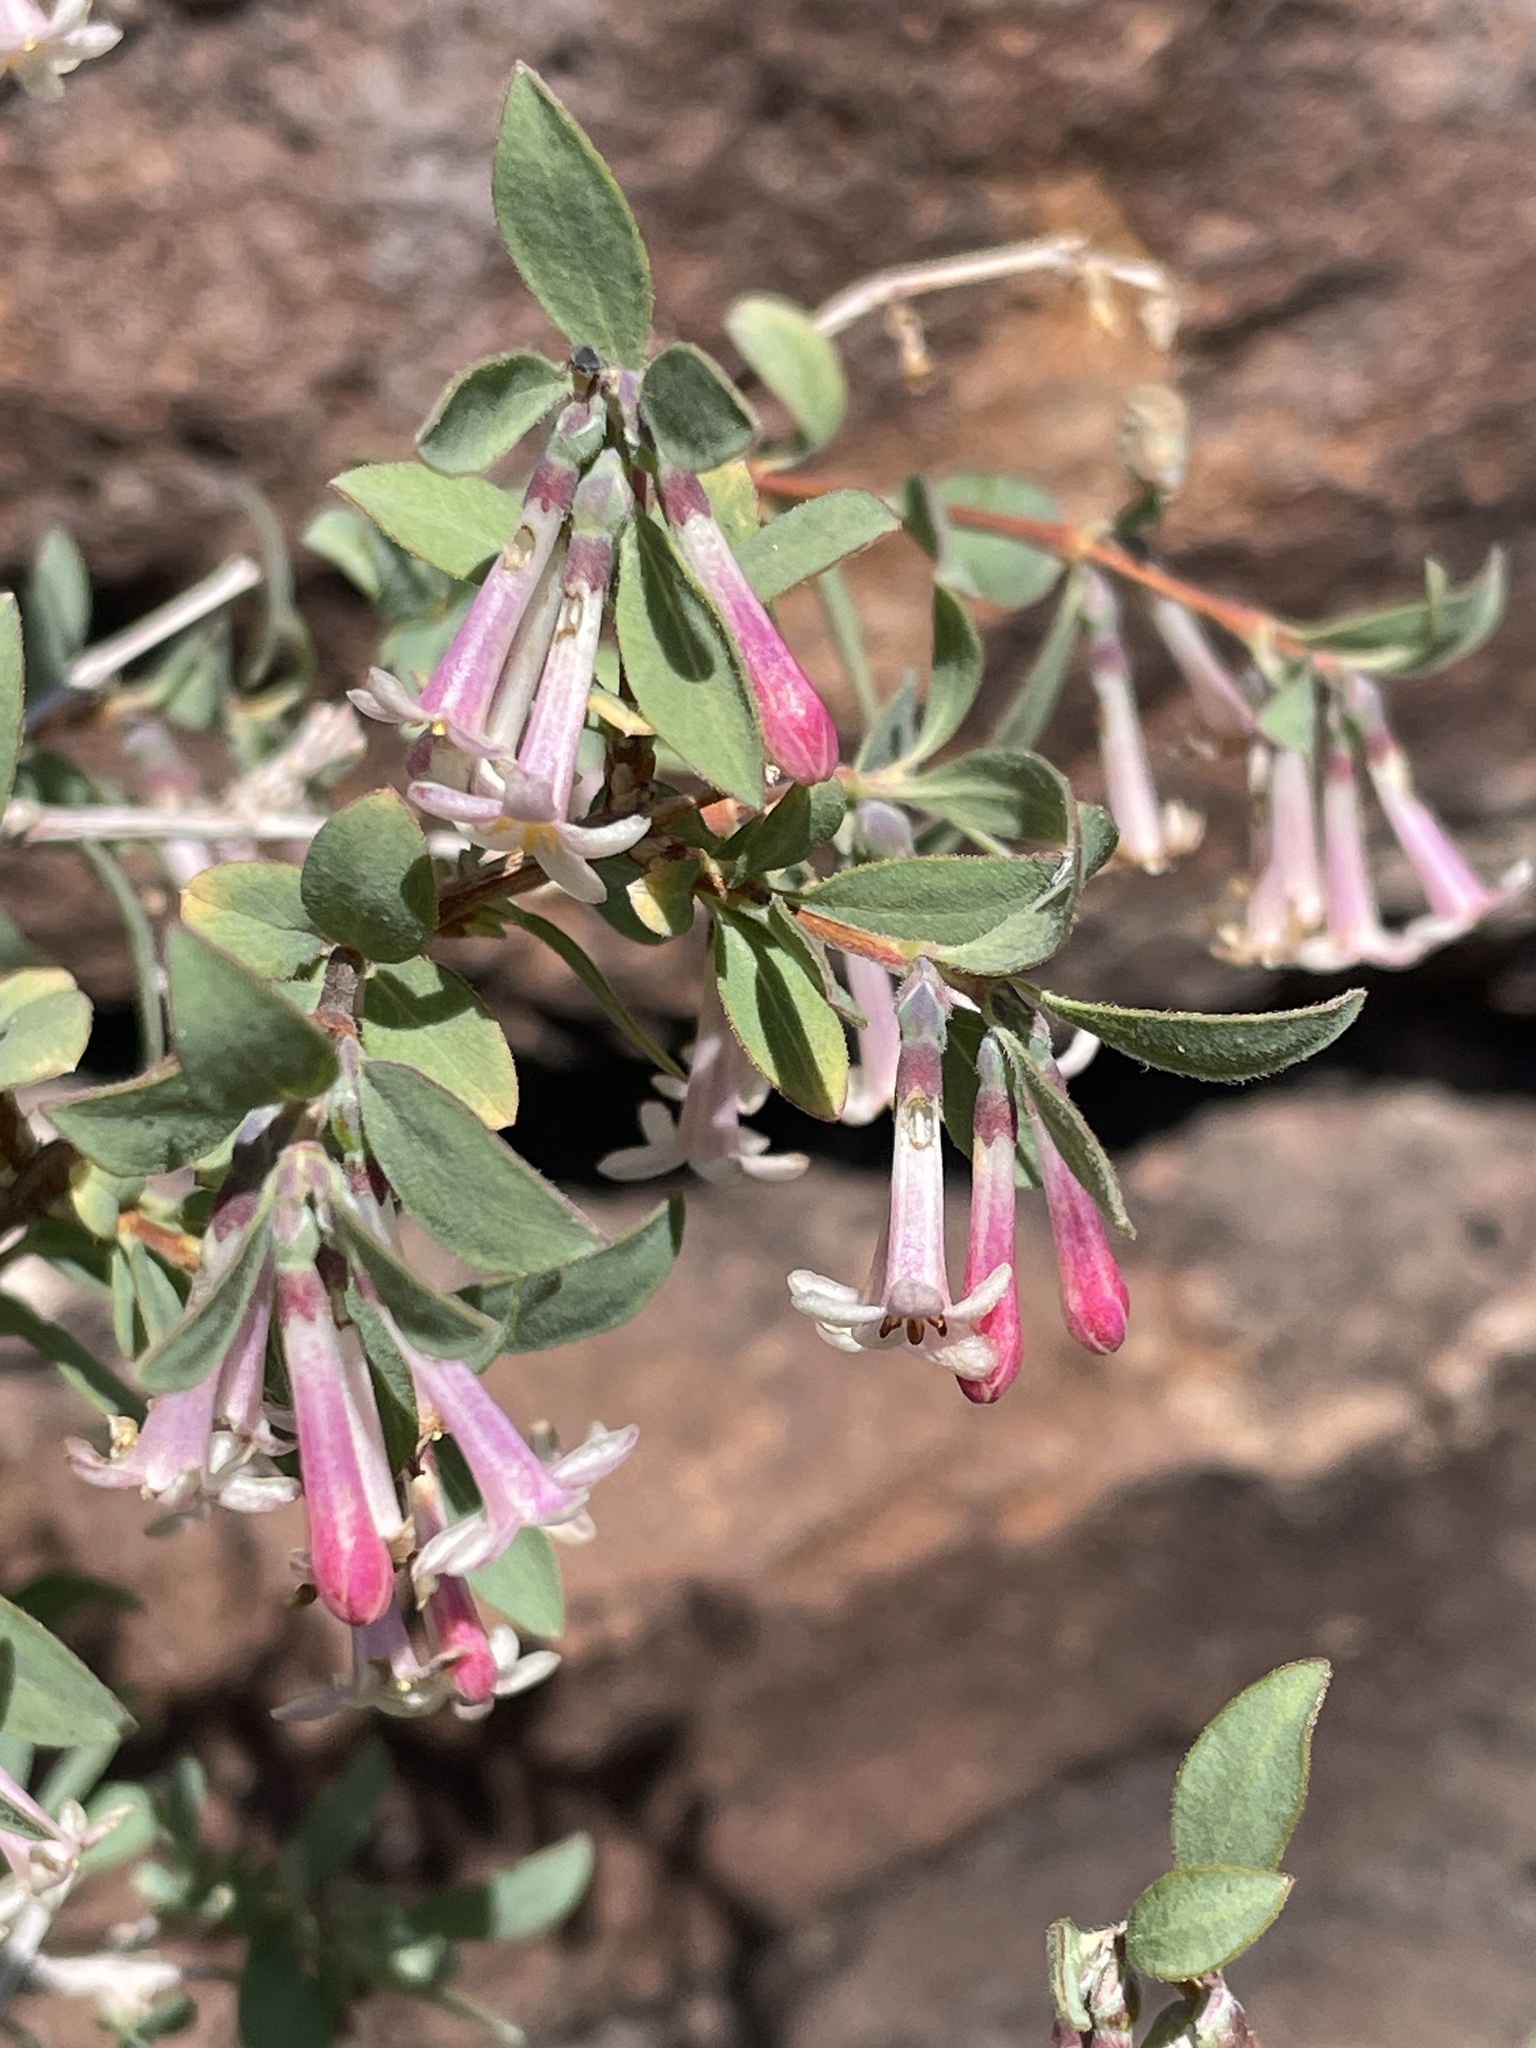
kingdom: Plantae
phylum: Tracheophyta
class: Magnoliopsida
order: Dipsacales
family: Caprifoliaceae
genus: Symphoricarpos
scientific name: Symphoricarpos longiflorus
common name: Fragrant snowberry
